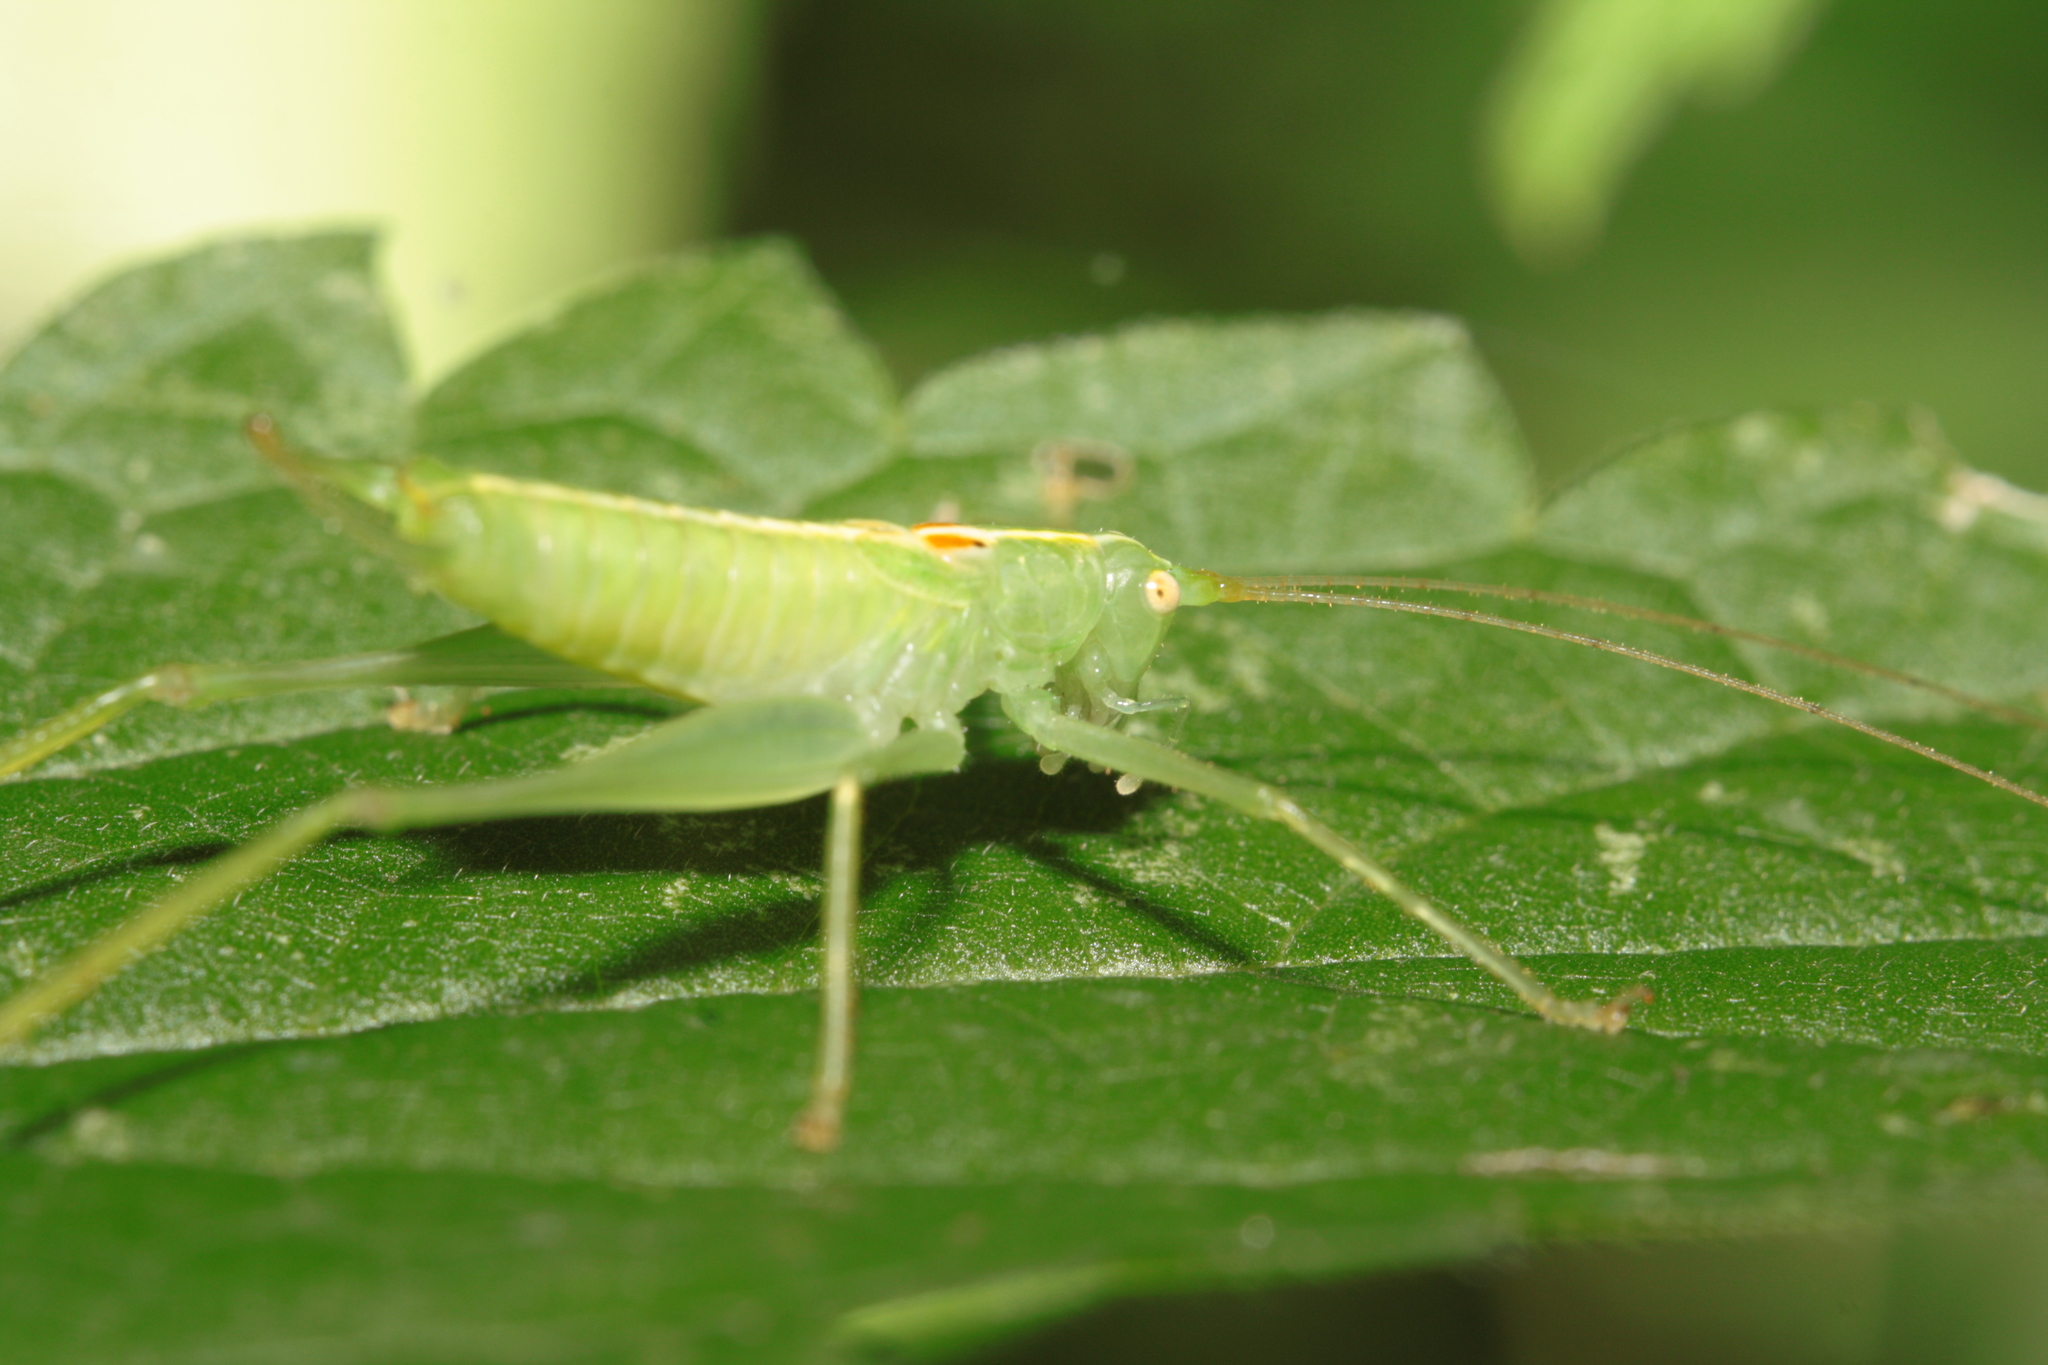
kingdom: Animalia
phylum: Arthropoda
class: Insecta
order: Orthoptera
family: Tettigoniidae
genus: Meconema
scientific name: Meconema meridionale
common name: Southern oak bush-cricket
